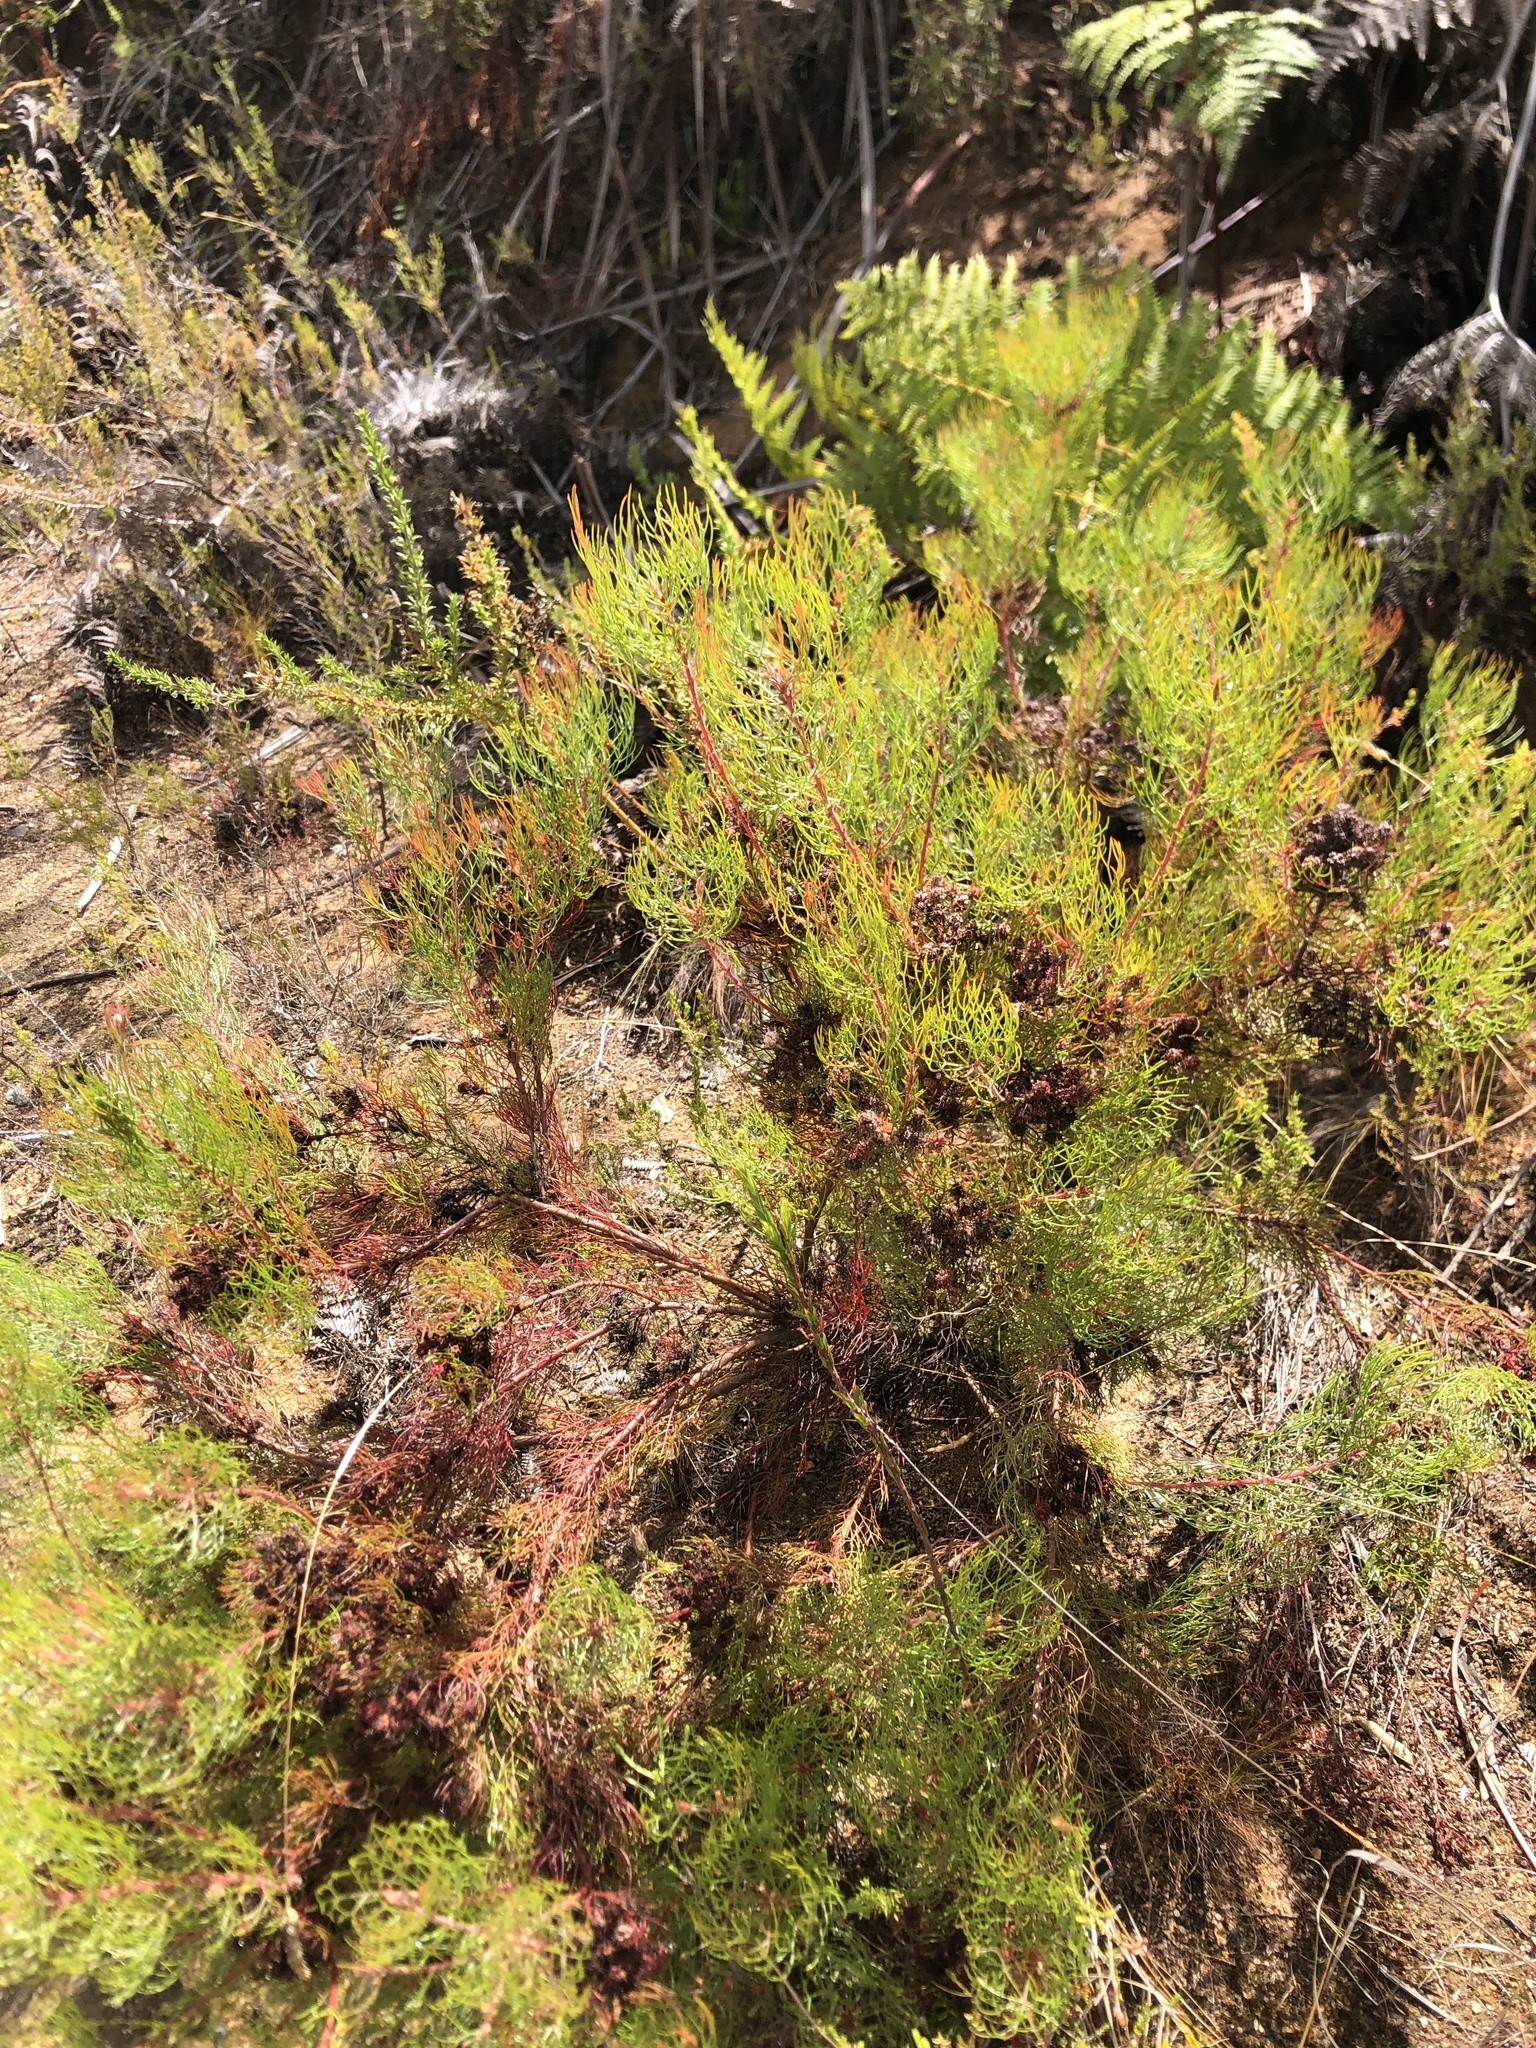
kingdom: Plantae
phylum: Tracheophyta
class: Magnoliopsida
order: Proteales
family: Proteaceae
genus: Serruria
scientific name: Serruria fasciflora
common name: Common pin spiderhead
